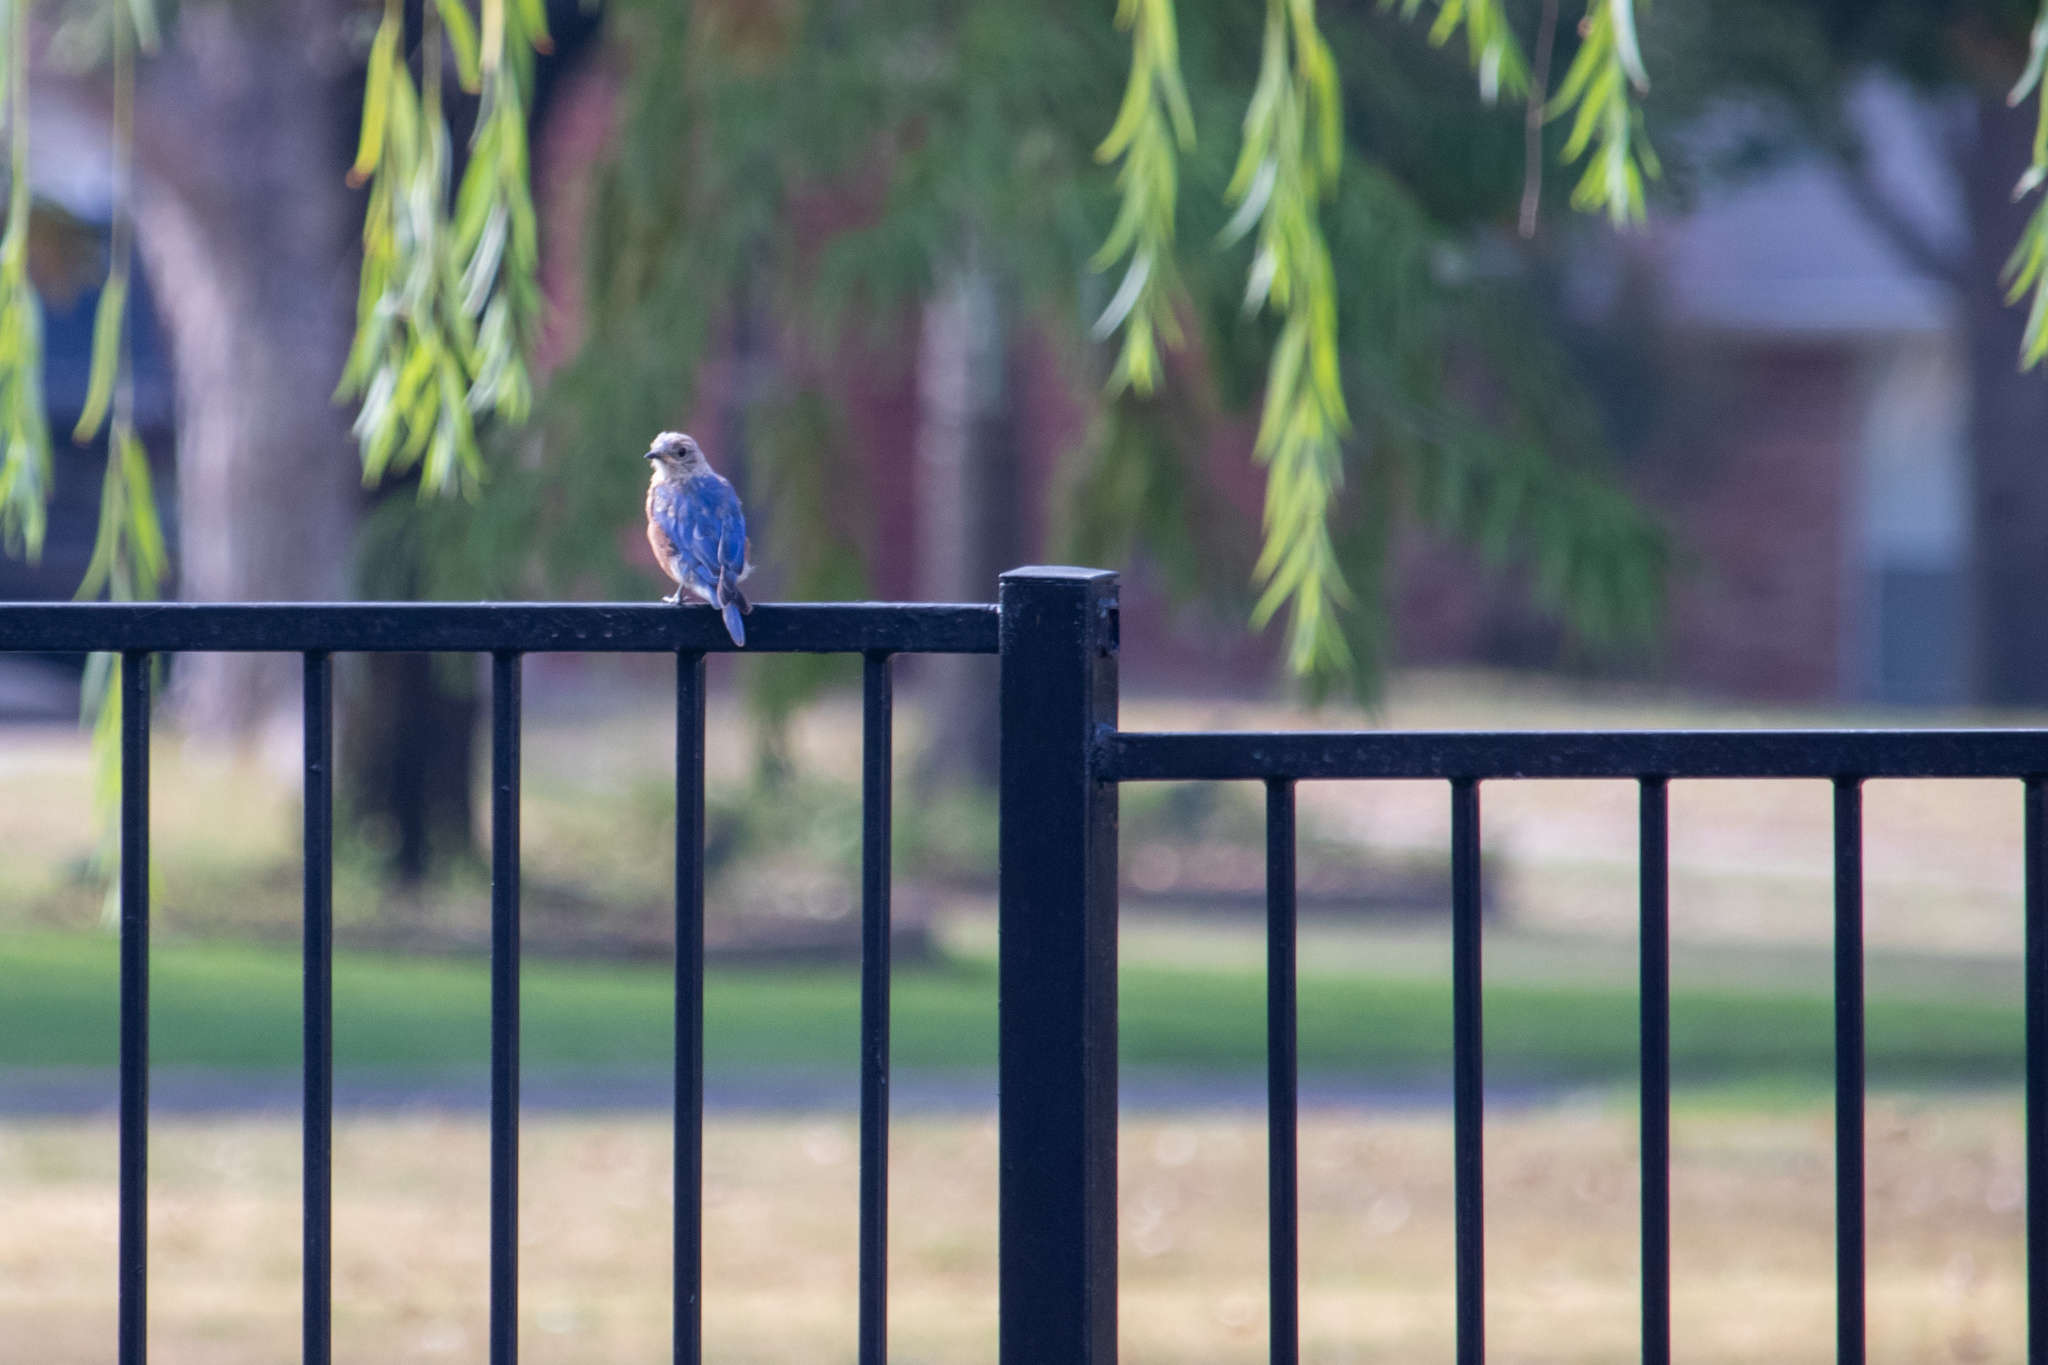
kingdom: Animalia
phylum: Chordata
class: Aves
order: Passeriformes
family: Turdidae
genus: Sialia
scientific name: Sialia sialis
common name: Eastern bluebird
